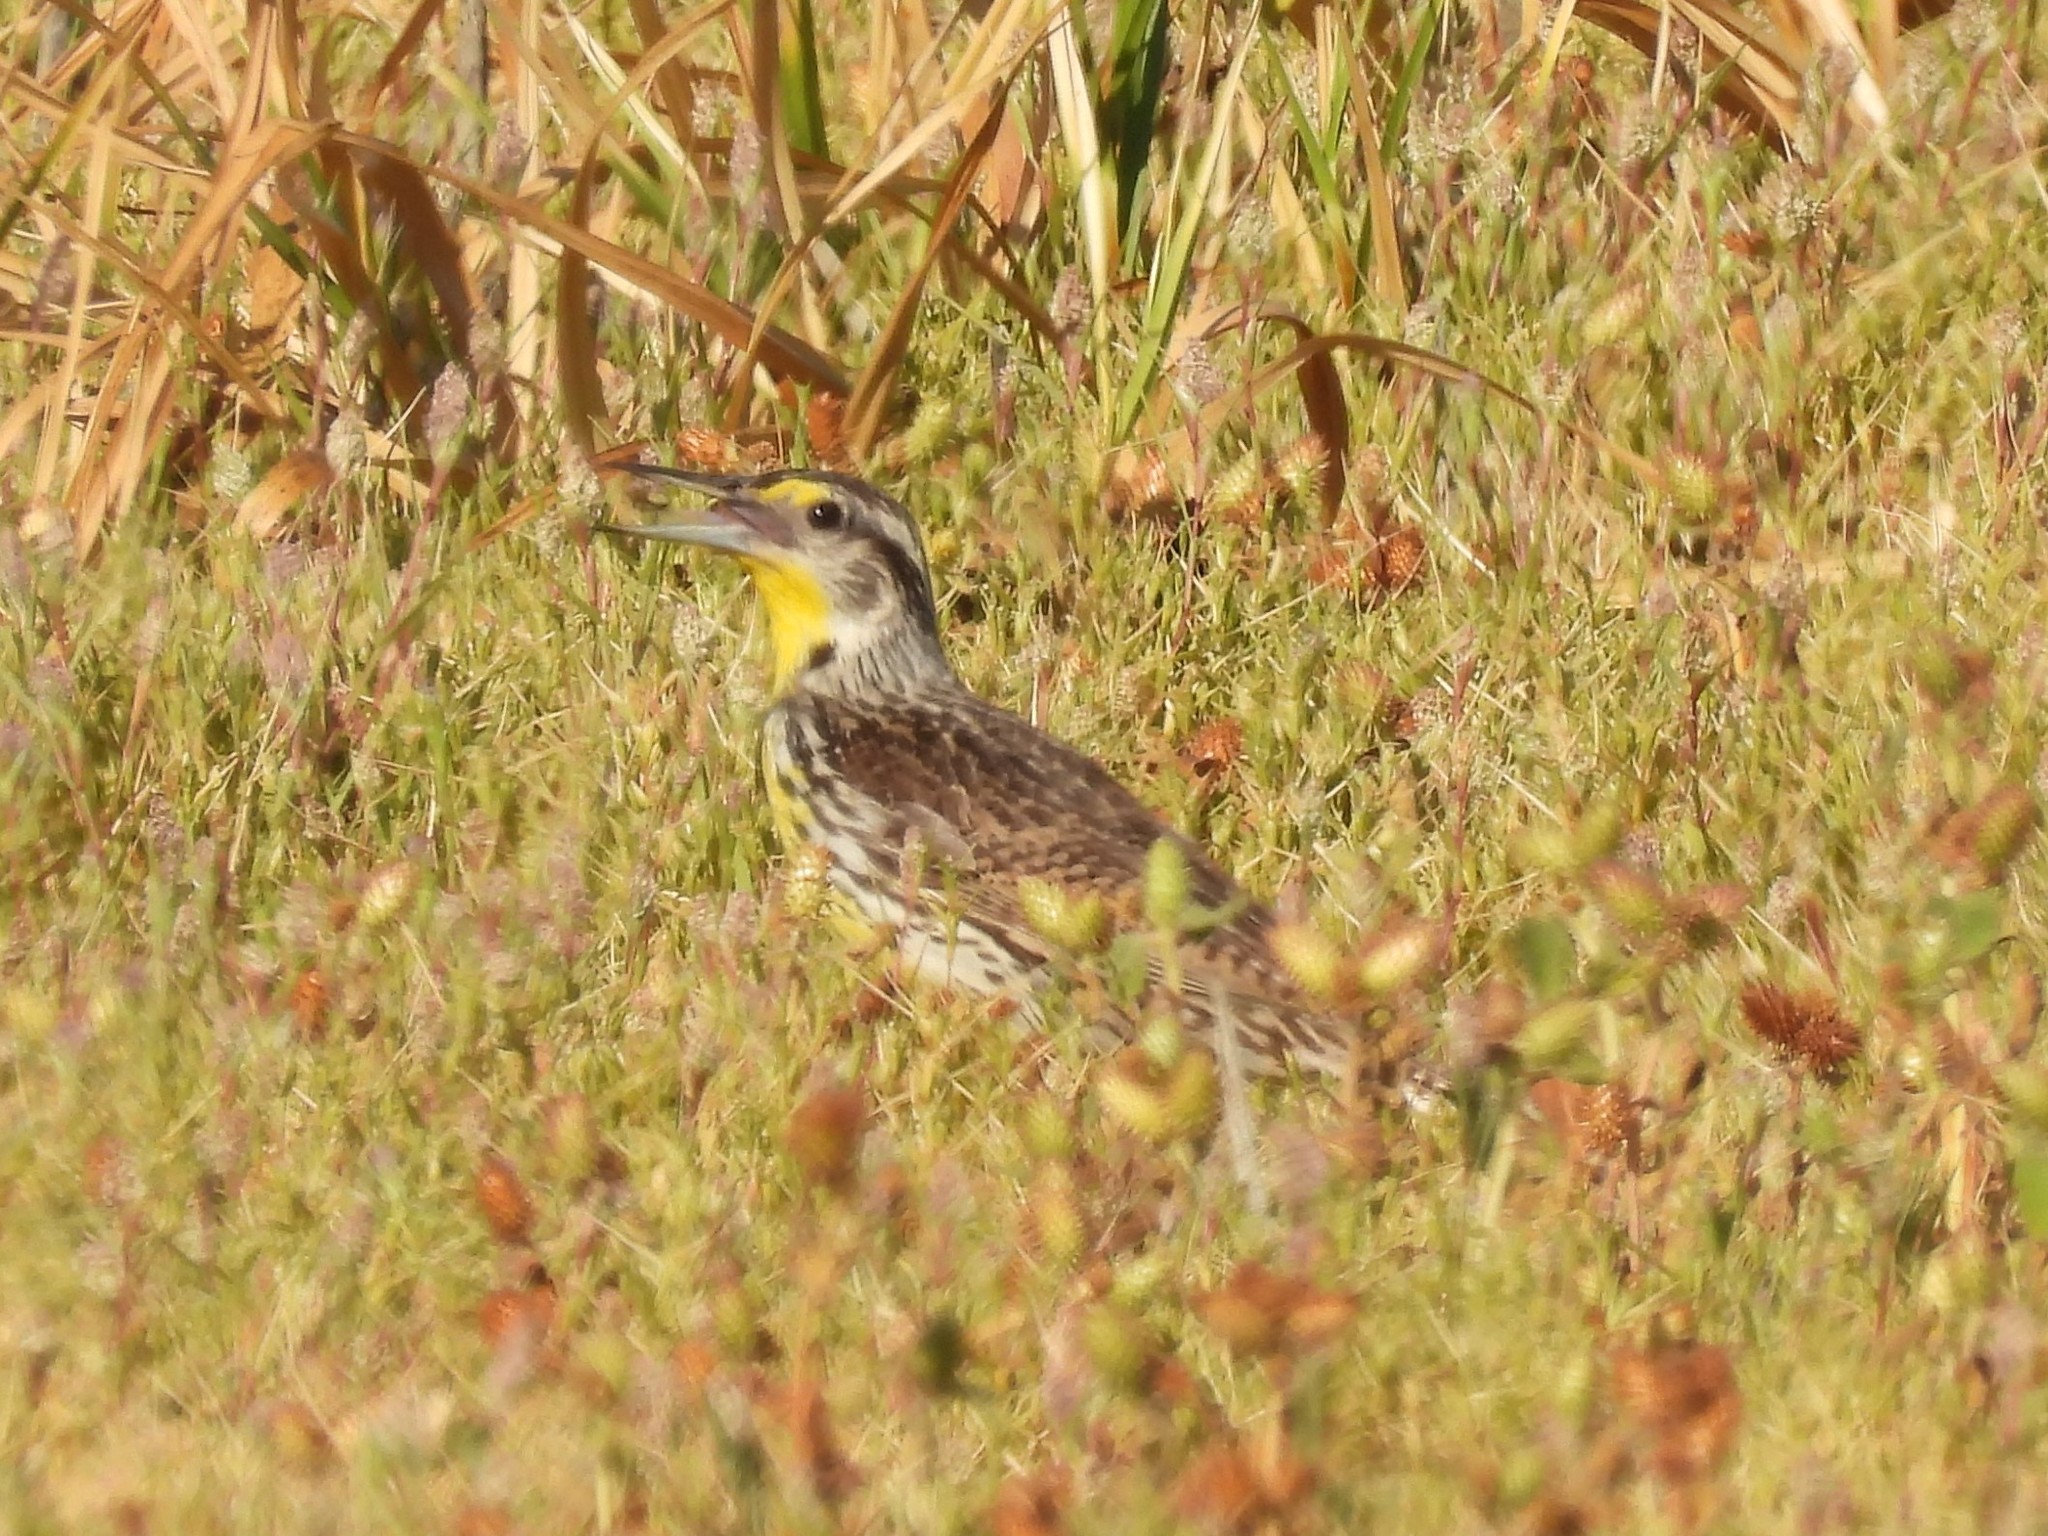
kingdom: Animalia
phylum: Chordata
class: Aves
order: Passeriformes
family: Icteridae
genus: Sturnella
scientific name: Sturnella neglecta
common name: Western meadowlark
